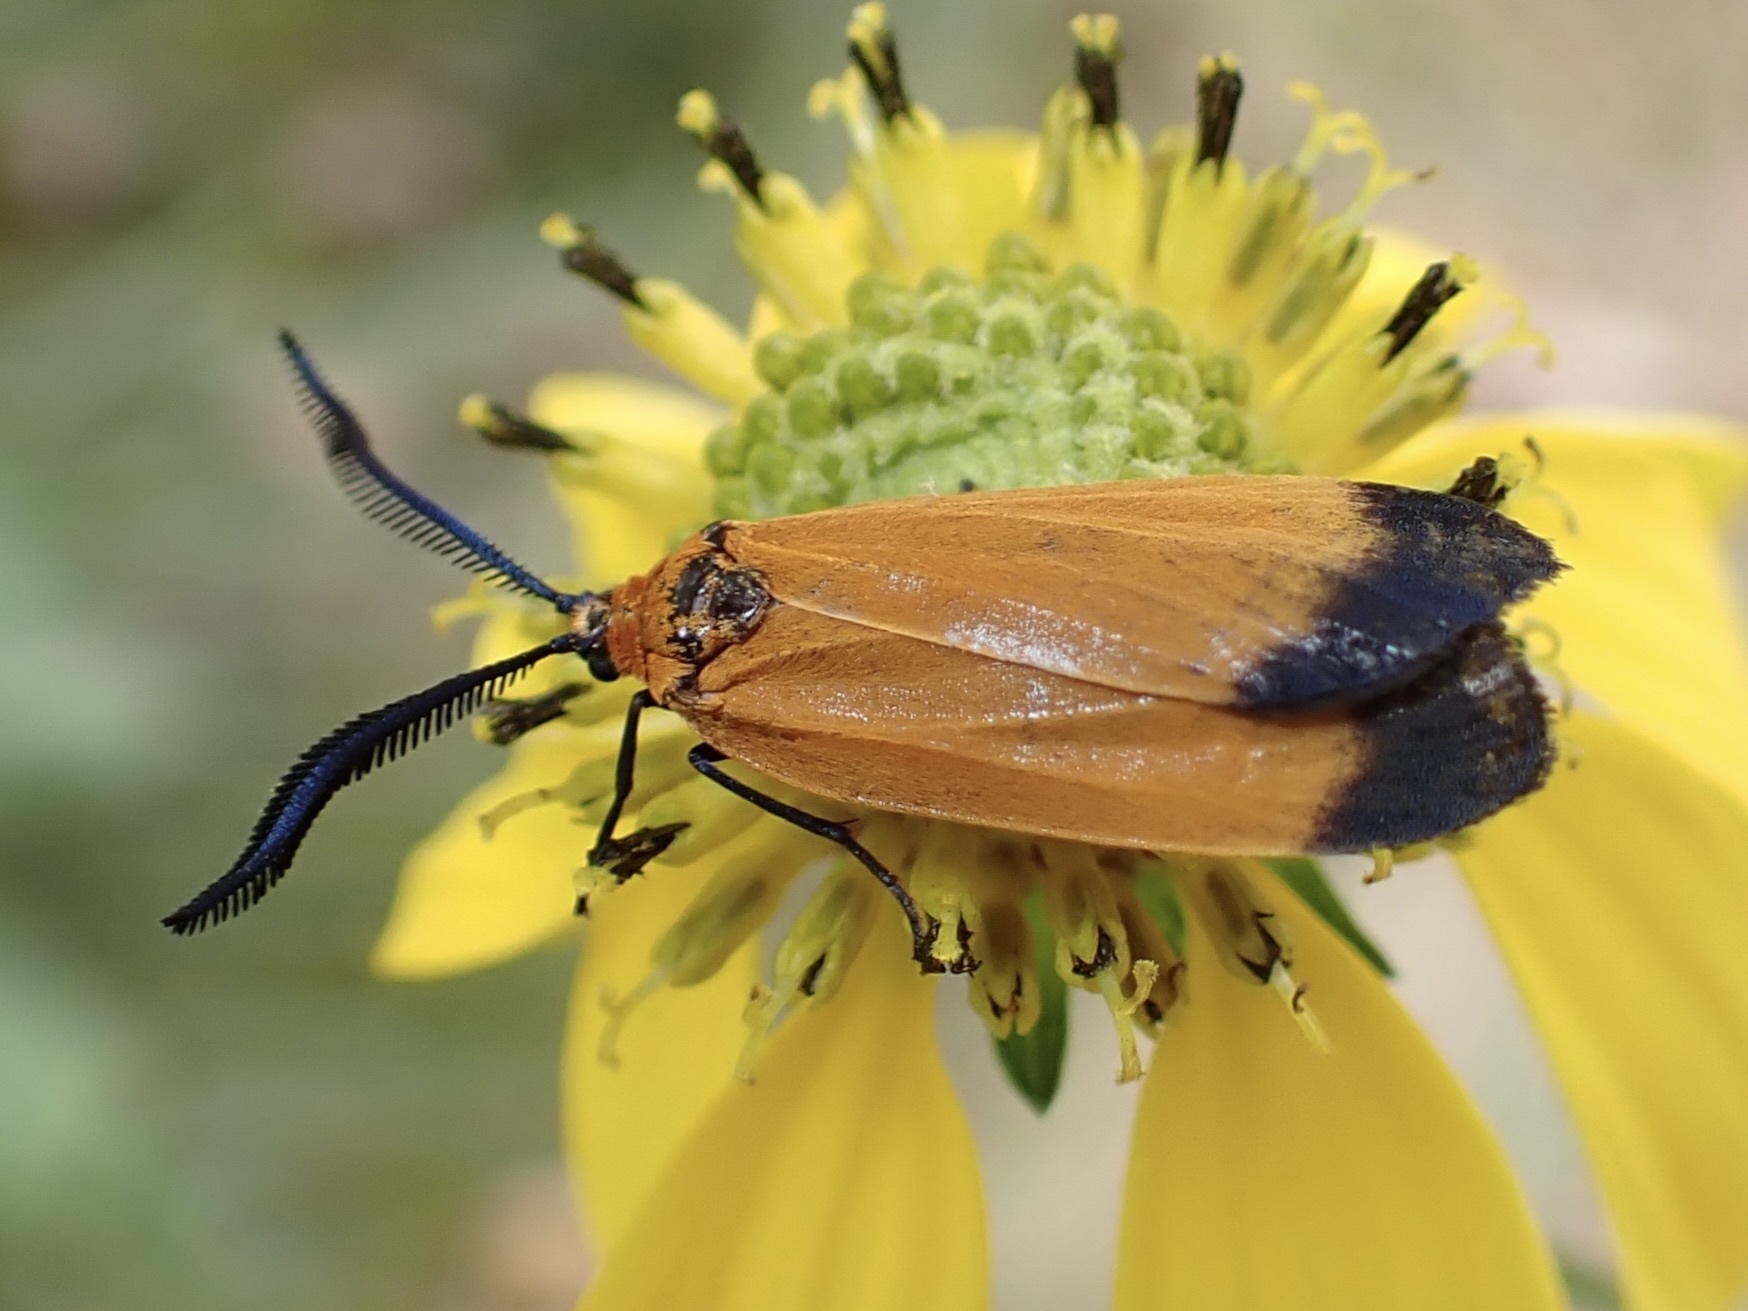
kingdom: Animalia
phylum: Arthropoda
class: Insecta
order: Lepidoptera
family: Zygaenidae
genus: Neoalbertia
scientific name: Neoalbertia constans
